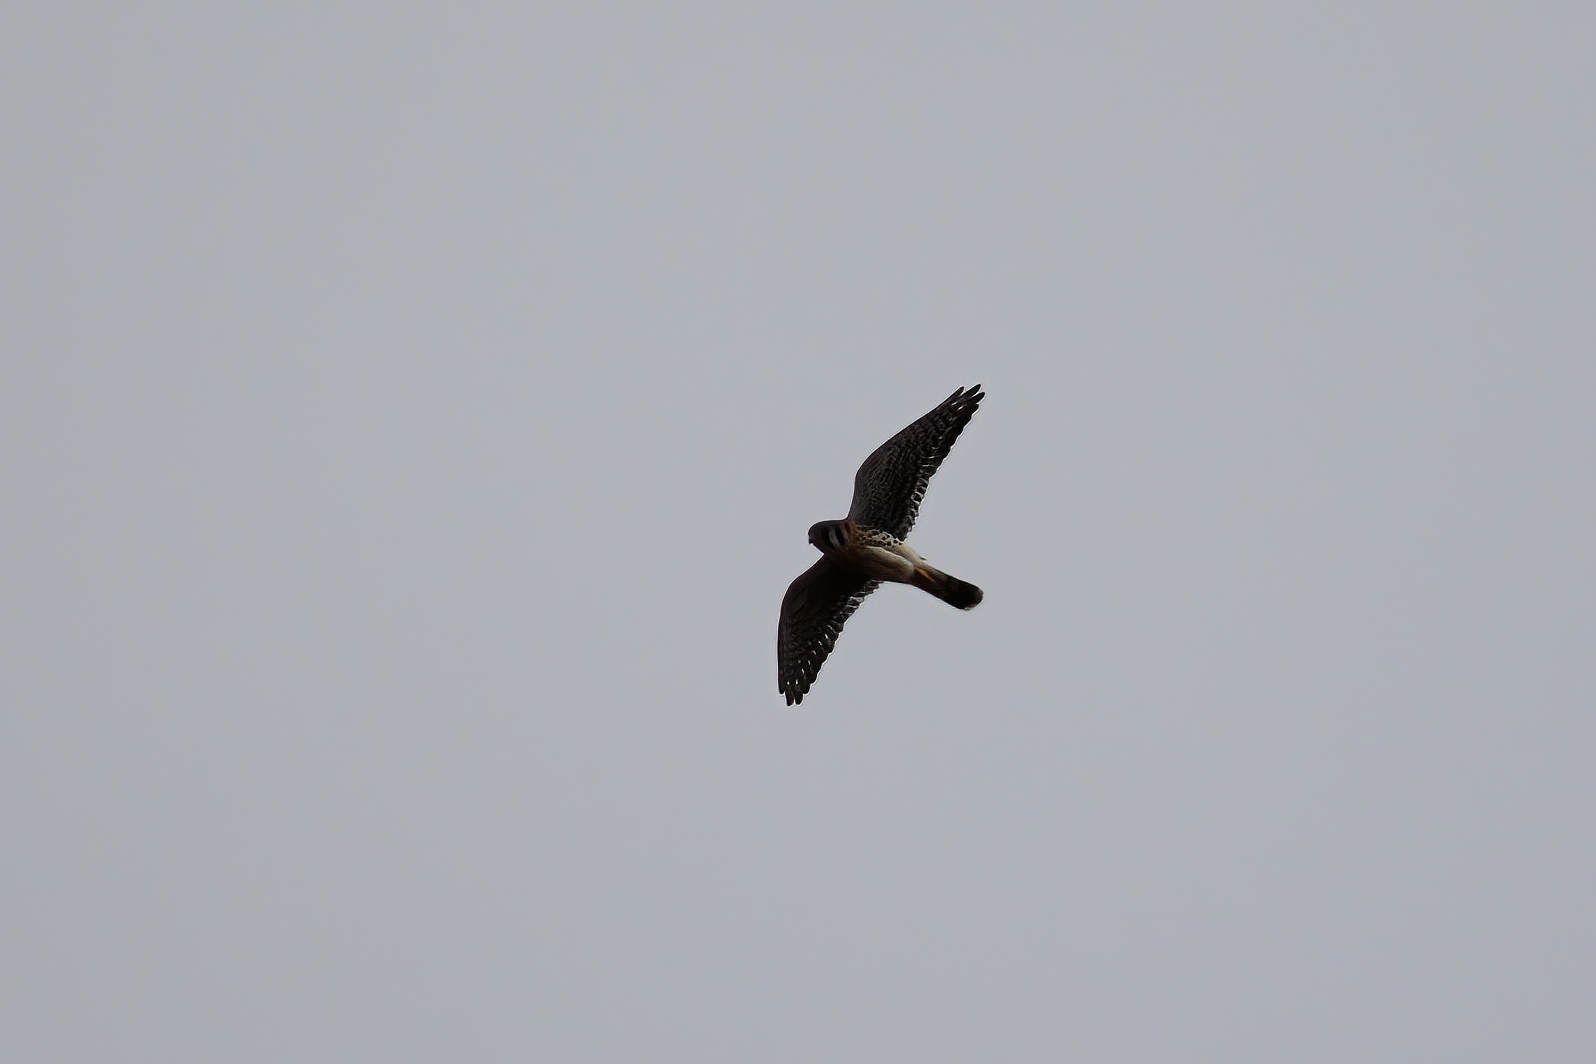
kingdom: Animalia
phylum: Chordata
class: Aves
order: Falconiformes
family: Falconidae
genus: Falco
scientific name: Falco sparverius
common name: American kestrel
